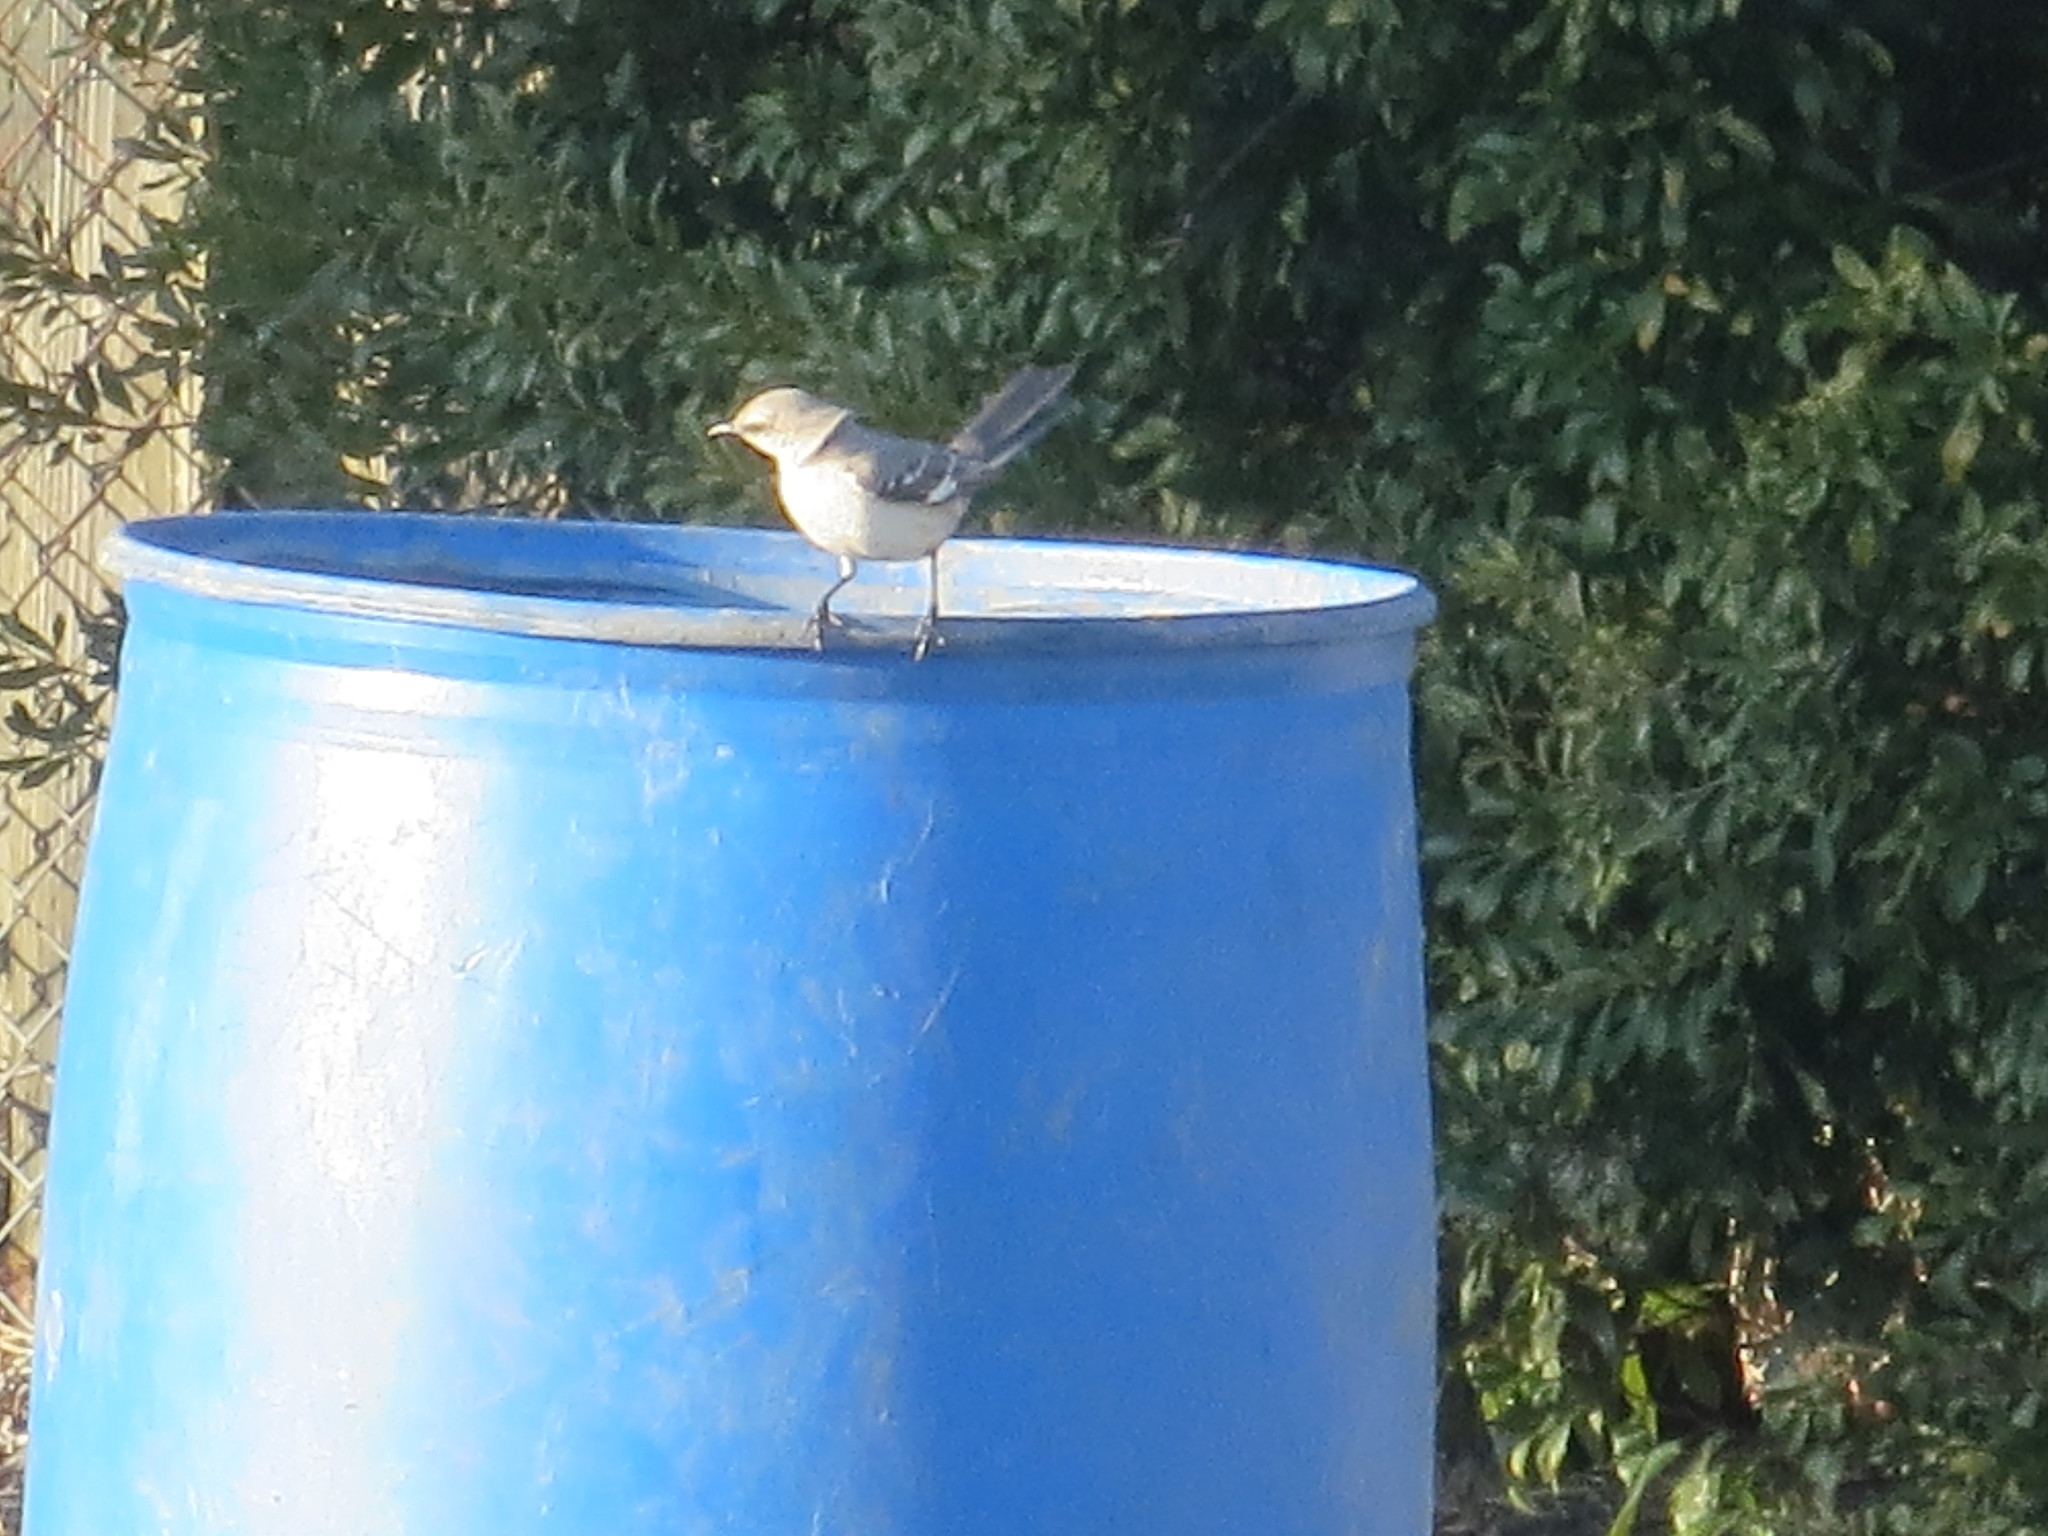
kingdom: Animalia
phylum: Chordata
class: Aves
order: Passeriformes
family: Mimidae
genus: Mimus
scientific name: Mimus polyglottos
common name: Northern mockingbird
